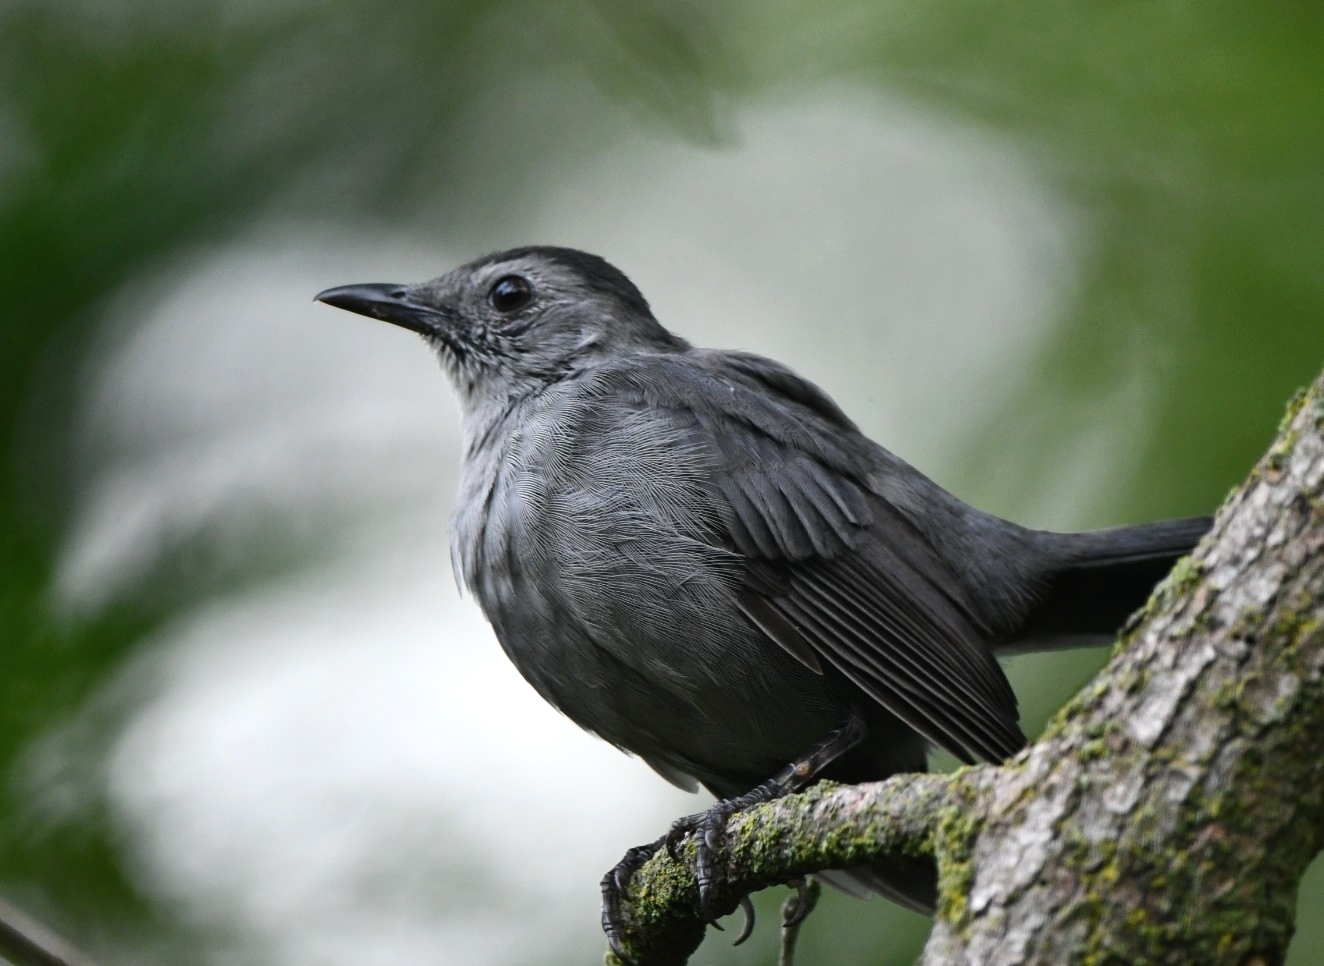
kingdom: Animalia
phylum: Chordata
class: Aves
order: Passeriformes
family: Mimidae
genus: Dumetella
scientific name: Dumetella carolinensis
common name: Gray catbird
